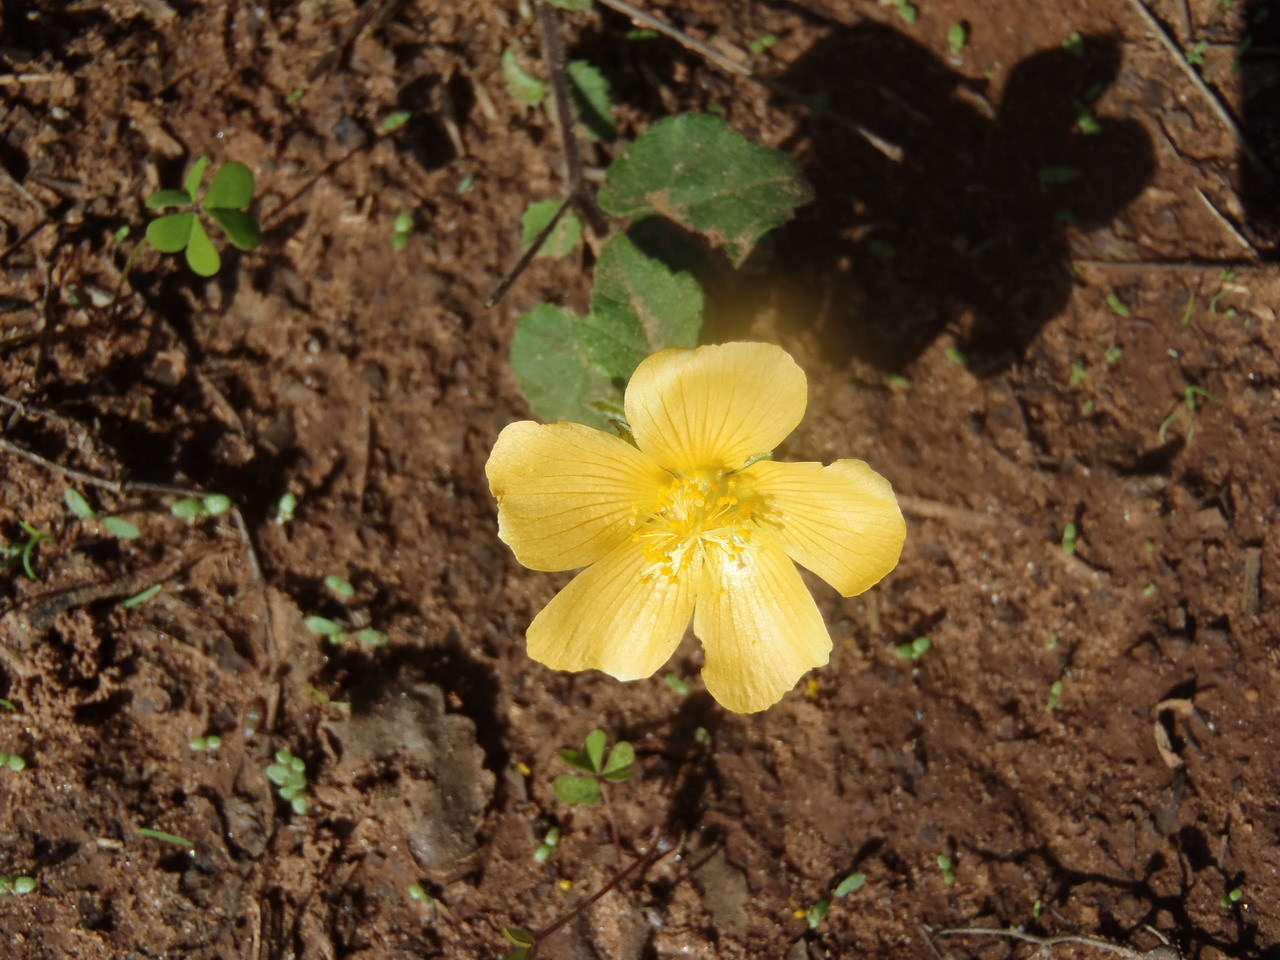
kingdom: Plantae
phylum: Tracheophyta
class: Magnoliopsida
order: Malvales
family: Malvaceae
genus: Abutilon
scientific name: Abutilon sonneratianum
